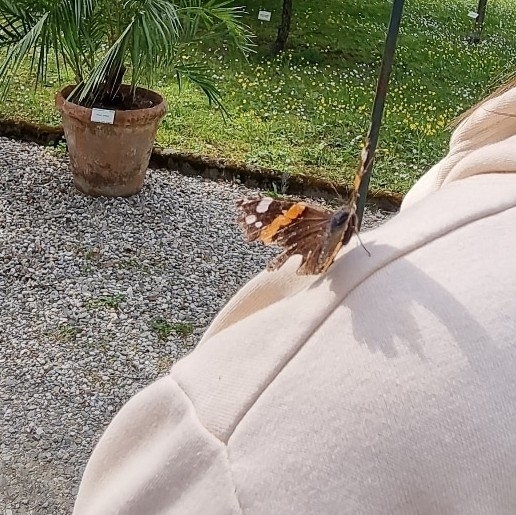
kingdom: Animalia
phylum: Arthropoda
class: Insecta
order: Lepidoptera
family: Nymphalidae
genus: Vanessa
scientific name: Vanessa atalanta
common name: Red admiral
